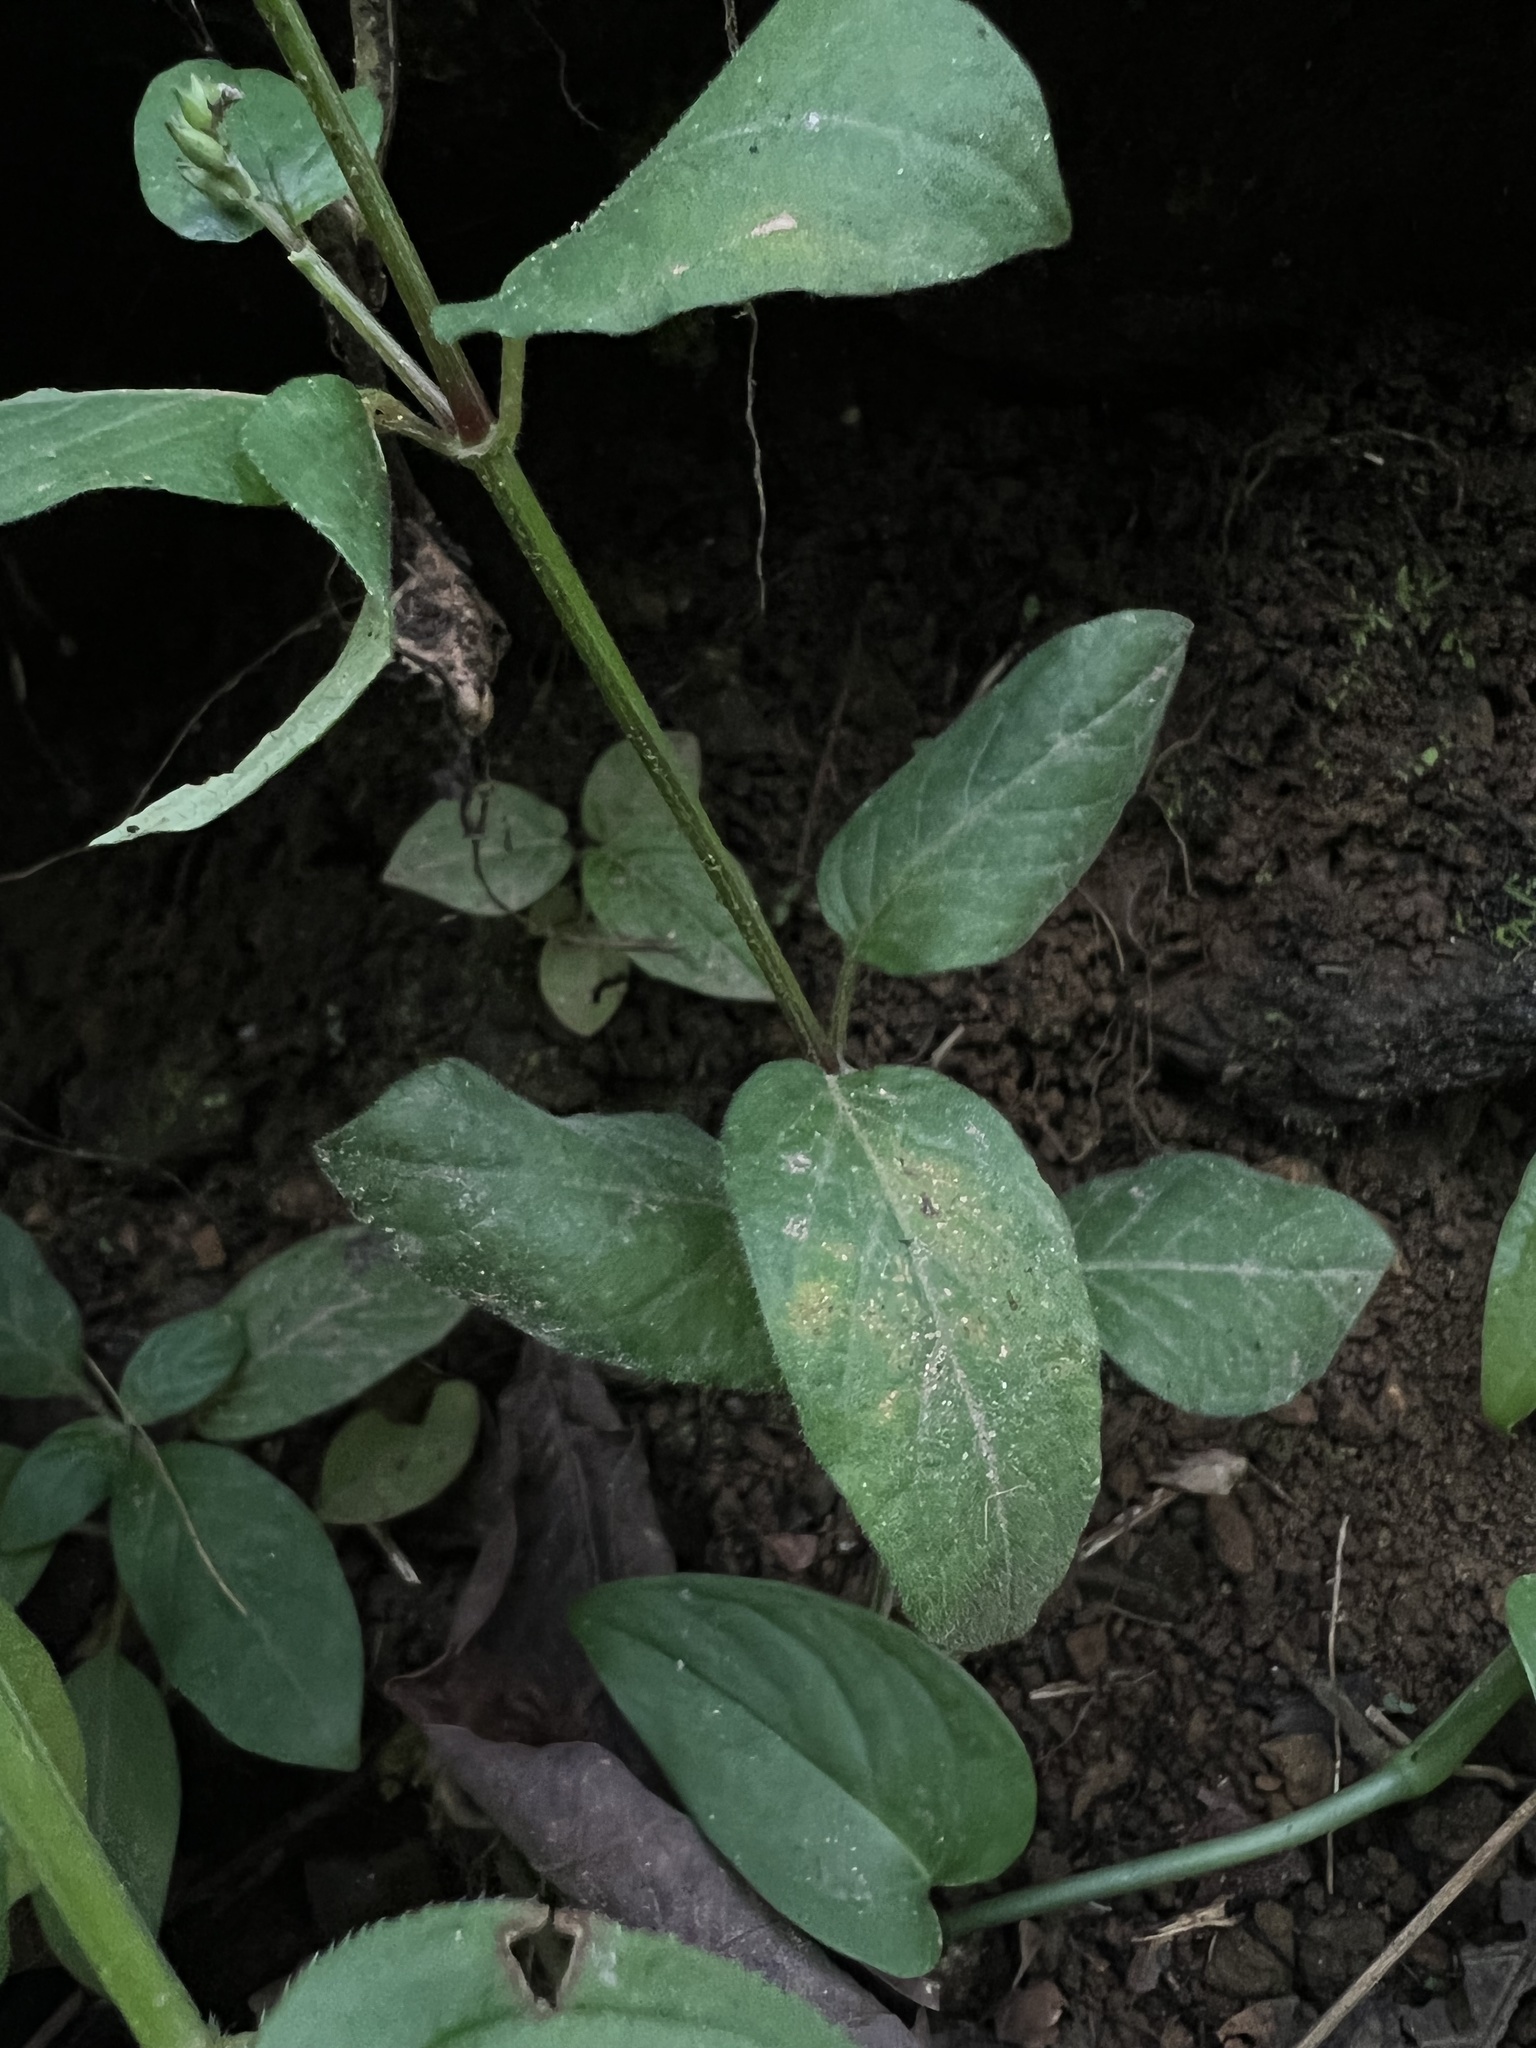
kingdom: Plantae
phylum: Tracheophyta
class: Magnoliopsida
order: Lamiales
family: Acanthaceae
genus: Asystasia
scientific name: Asystasia intrusa
